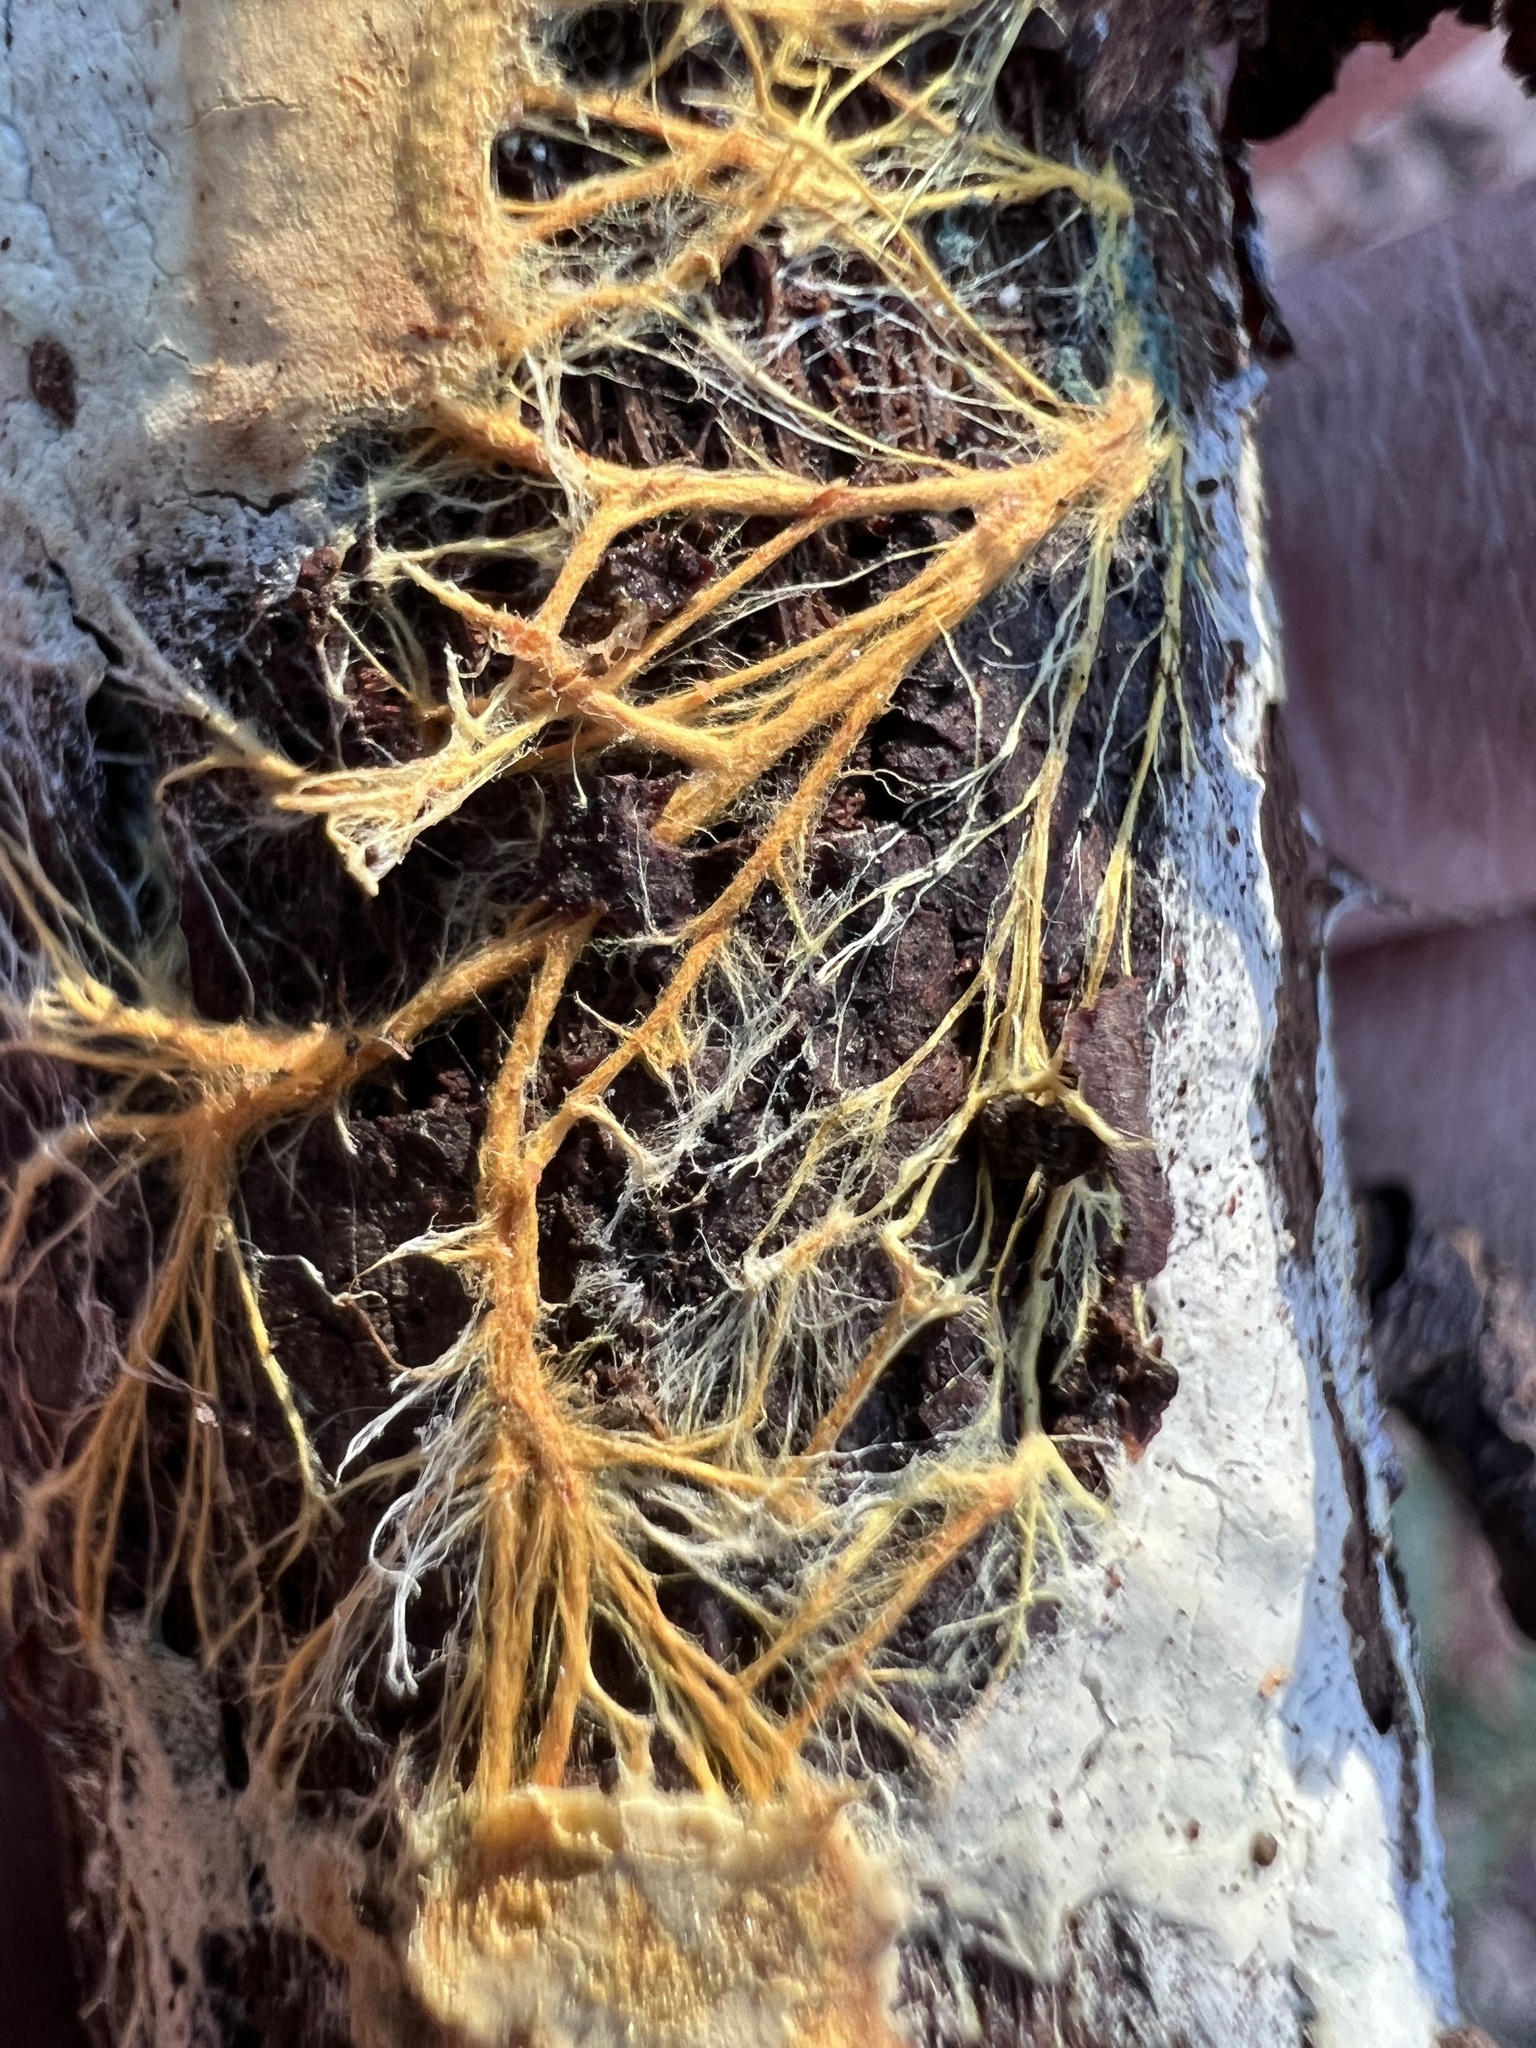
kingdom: Fungi
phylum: Basidiomycota
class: Agaricomycetes
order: Polyporales
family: Meruliaceae
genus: Hydnophlebia
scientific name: Hydnophlebia chrysorhiza
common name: Spreading yellow tooth
